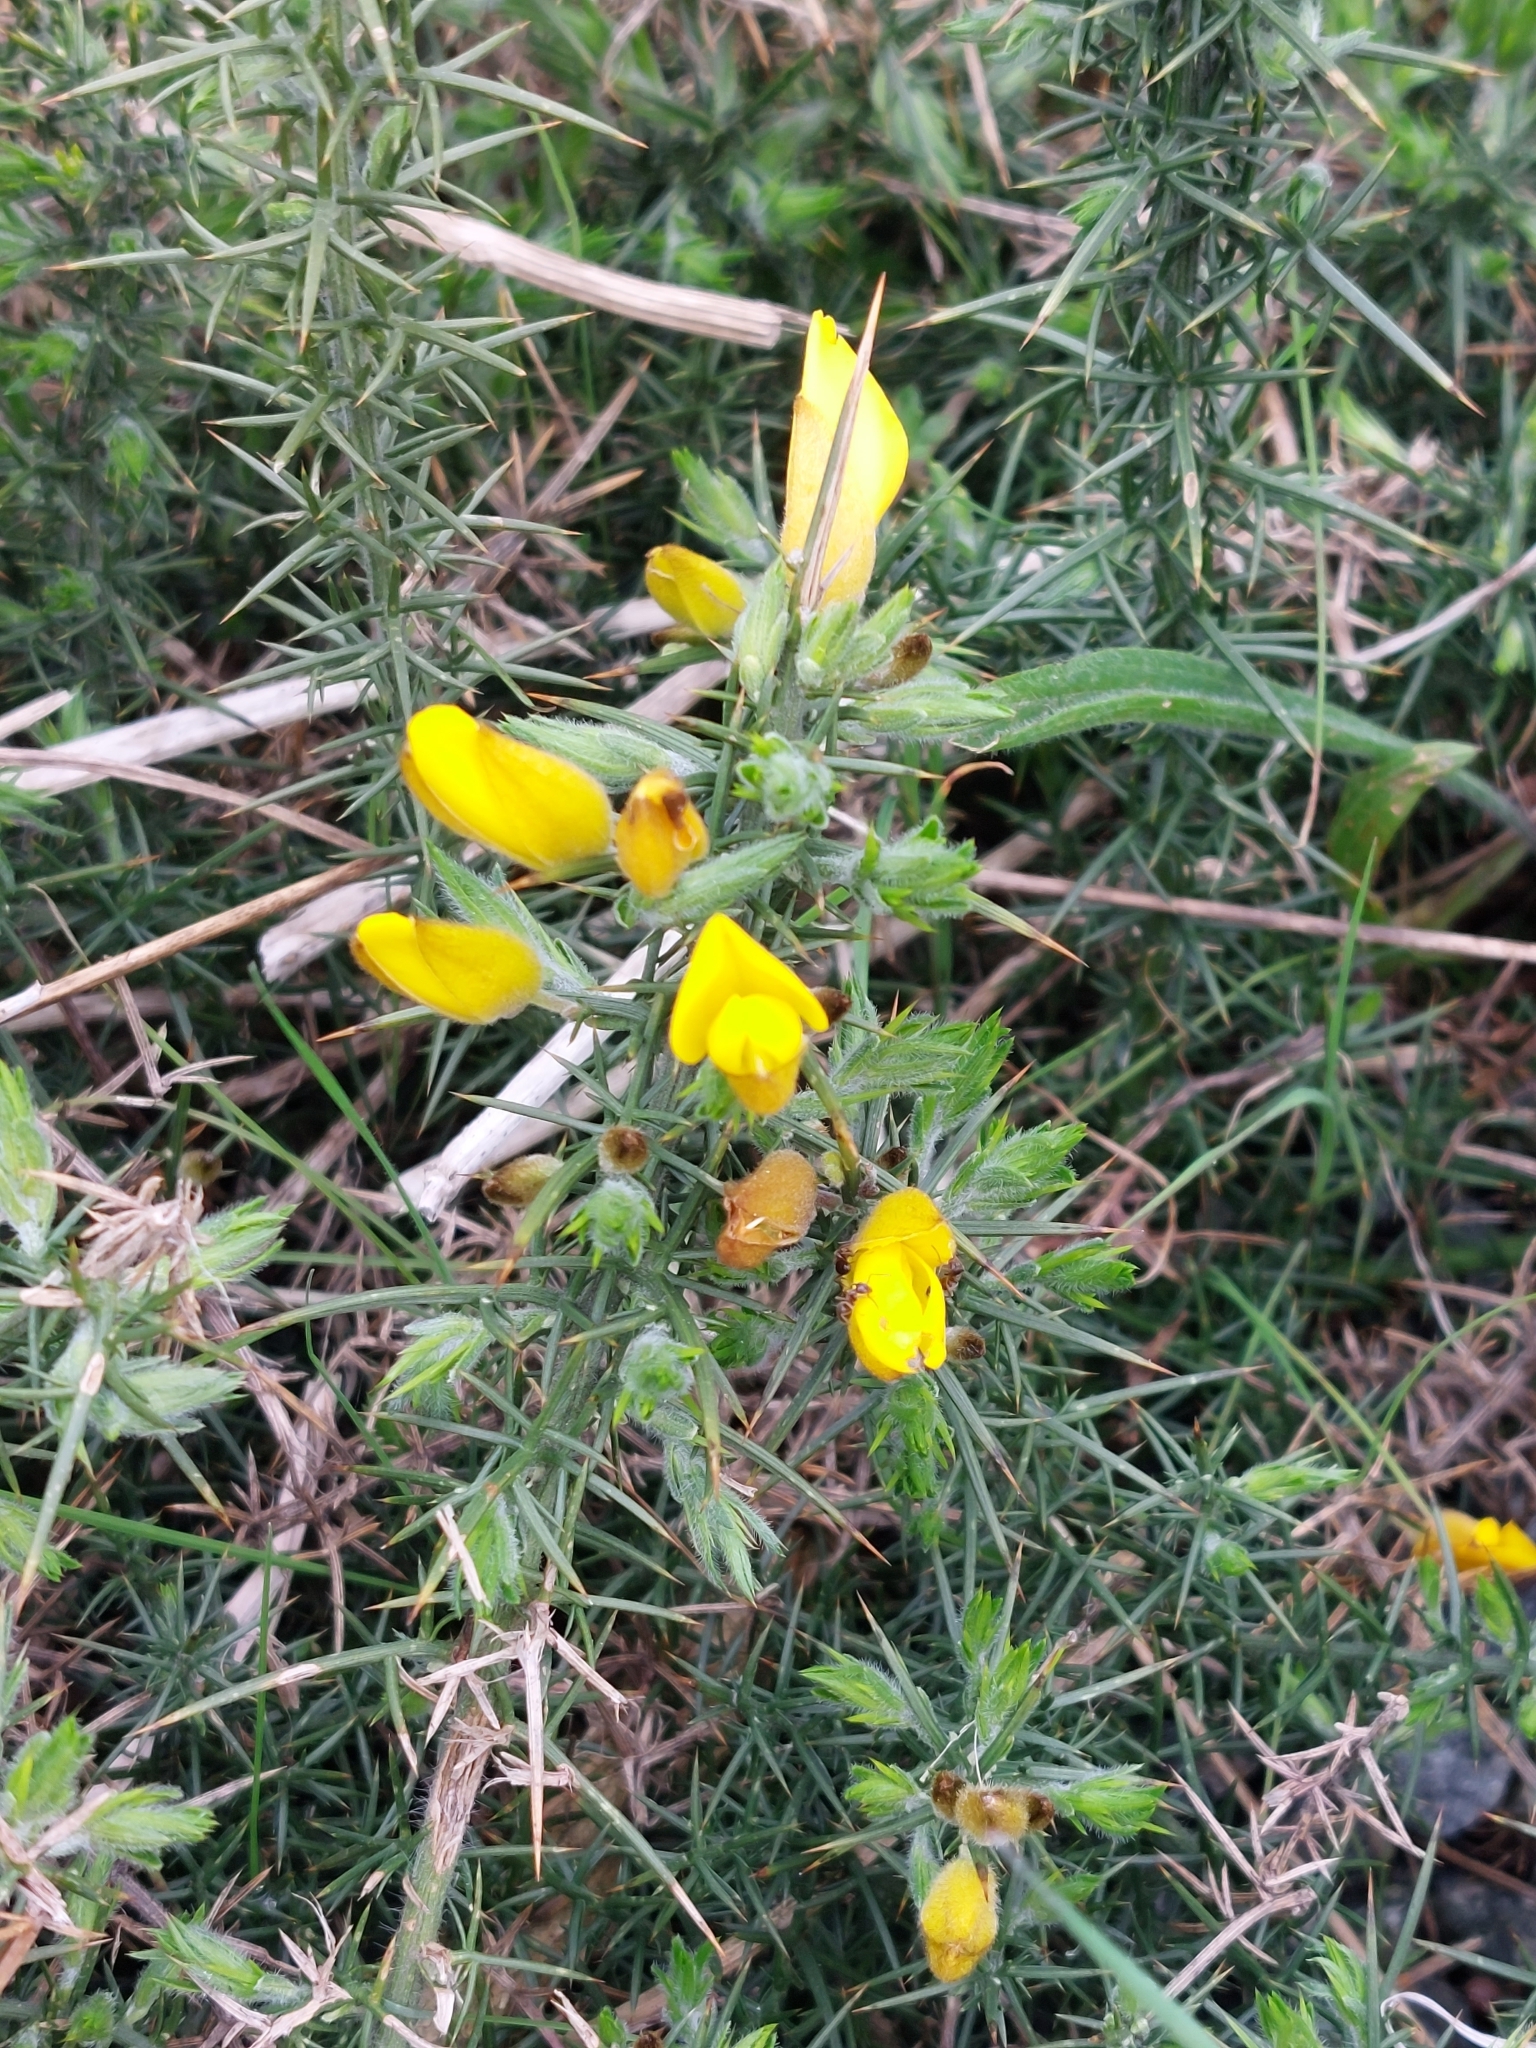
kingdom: Plantae
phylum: Tracheophyta
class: Magnoliopsida
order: Fabales
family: Fabaceae
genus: Ulex
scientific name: Ulex europaeus
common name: Common gorse
